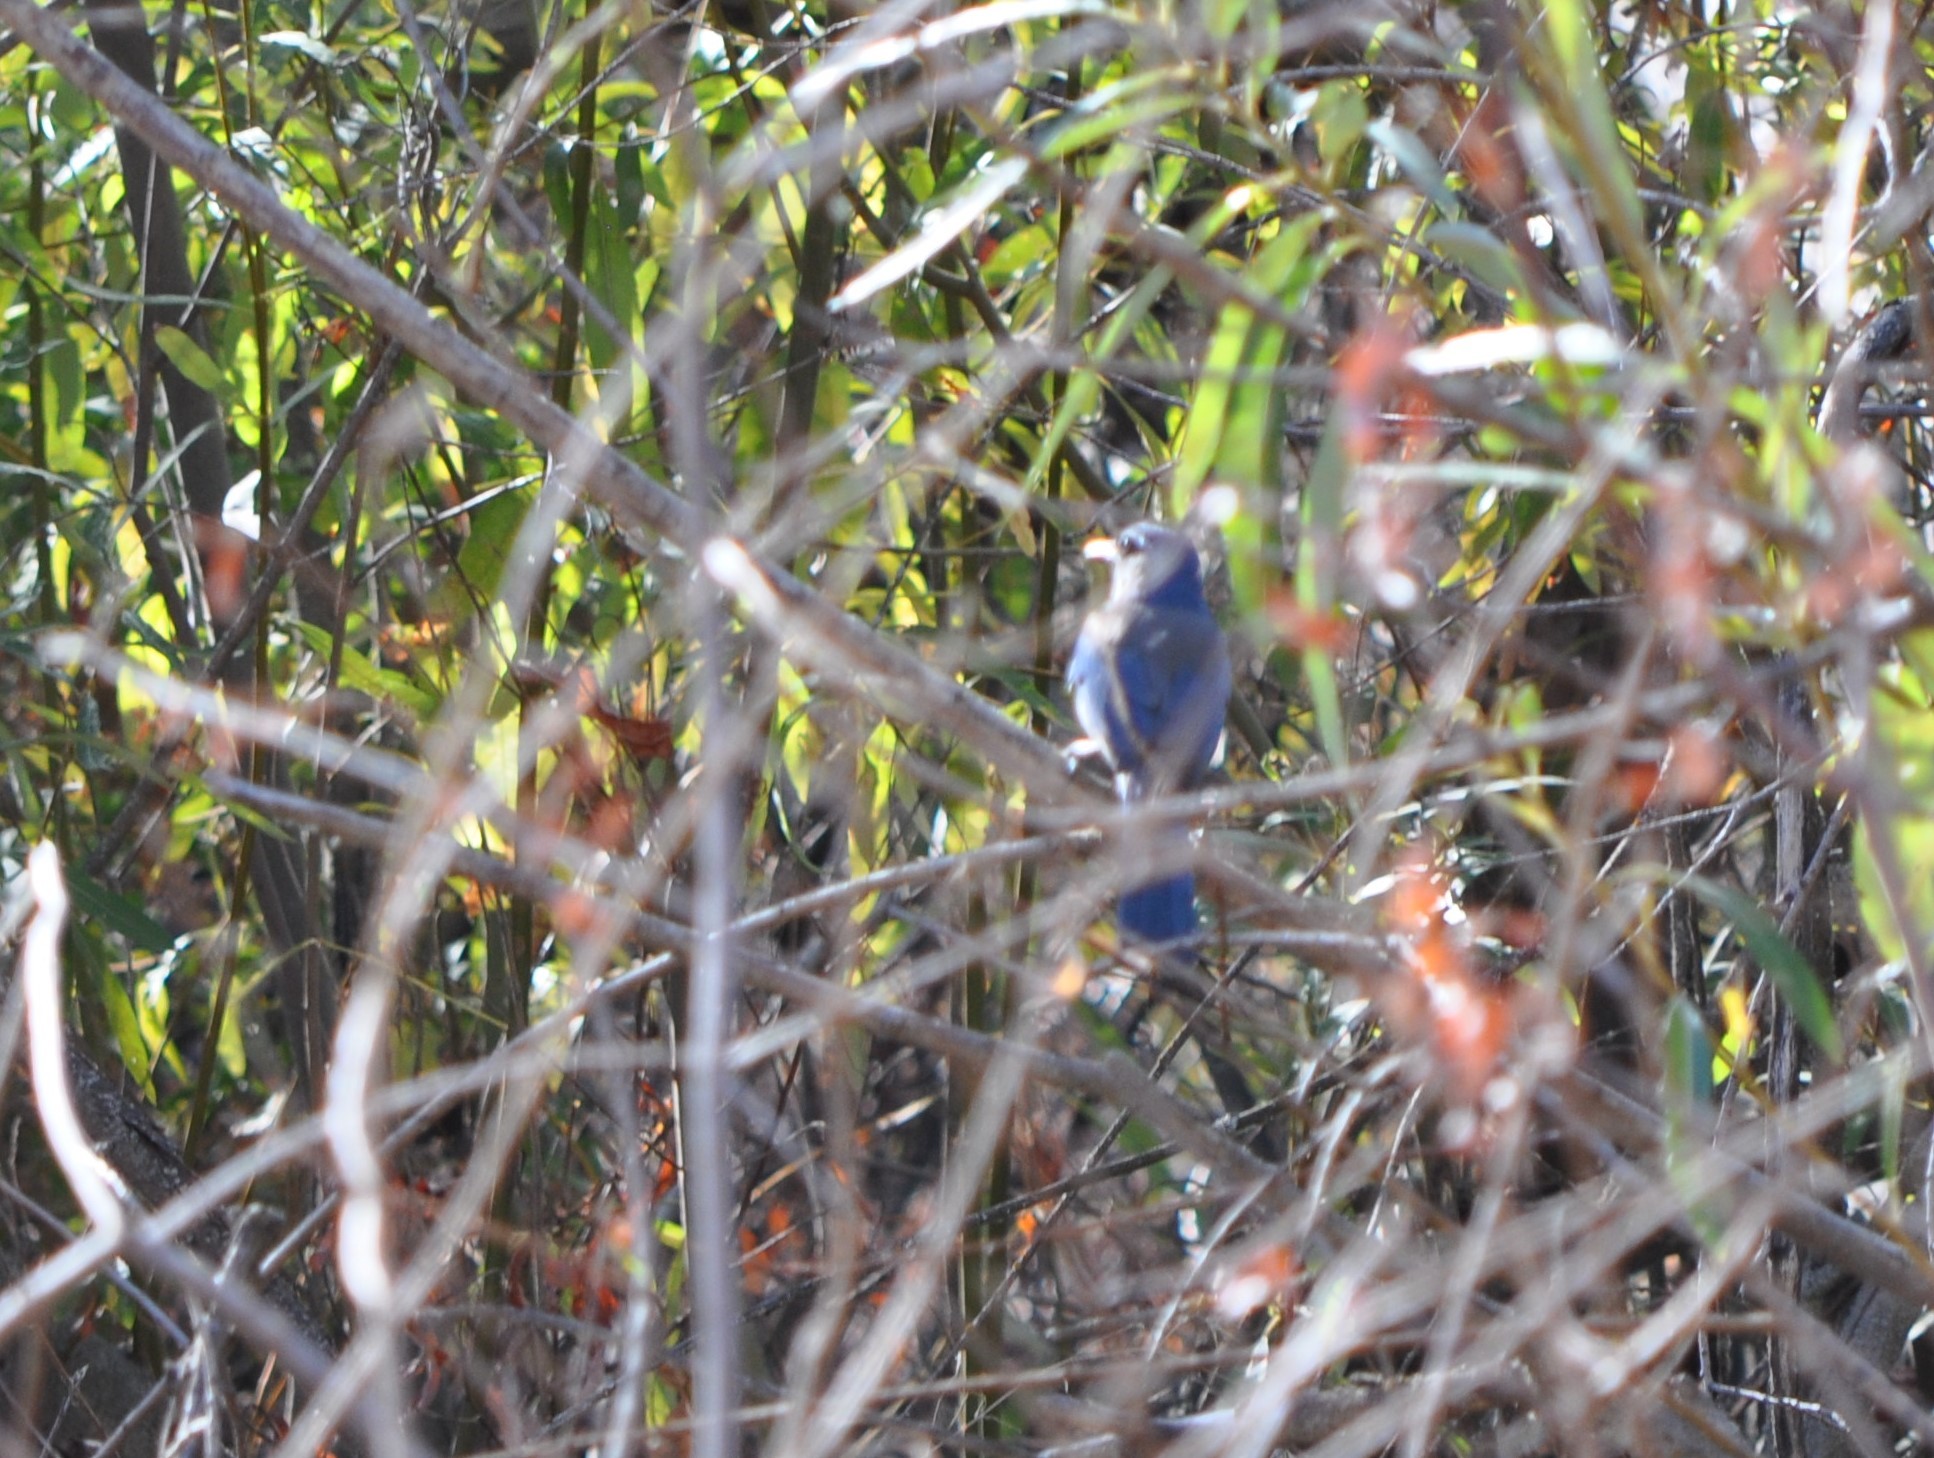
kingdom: Animalia
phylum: Chordata
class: Aves
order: Passeriformes
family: Corvidae
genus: Aphelocoma
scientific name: Aphelocoma californica
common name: California scrub-jay
